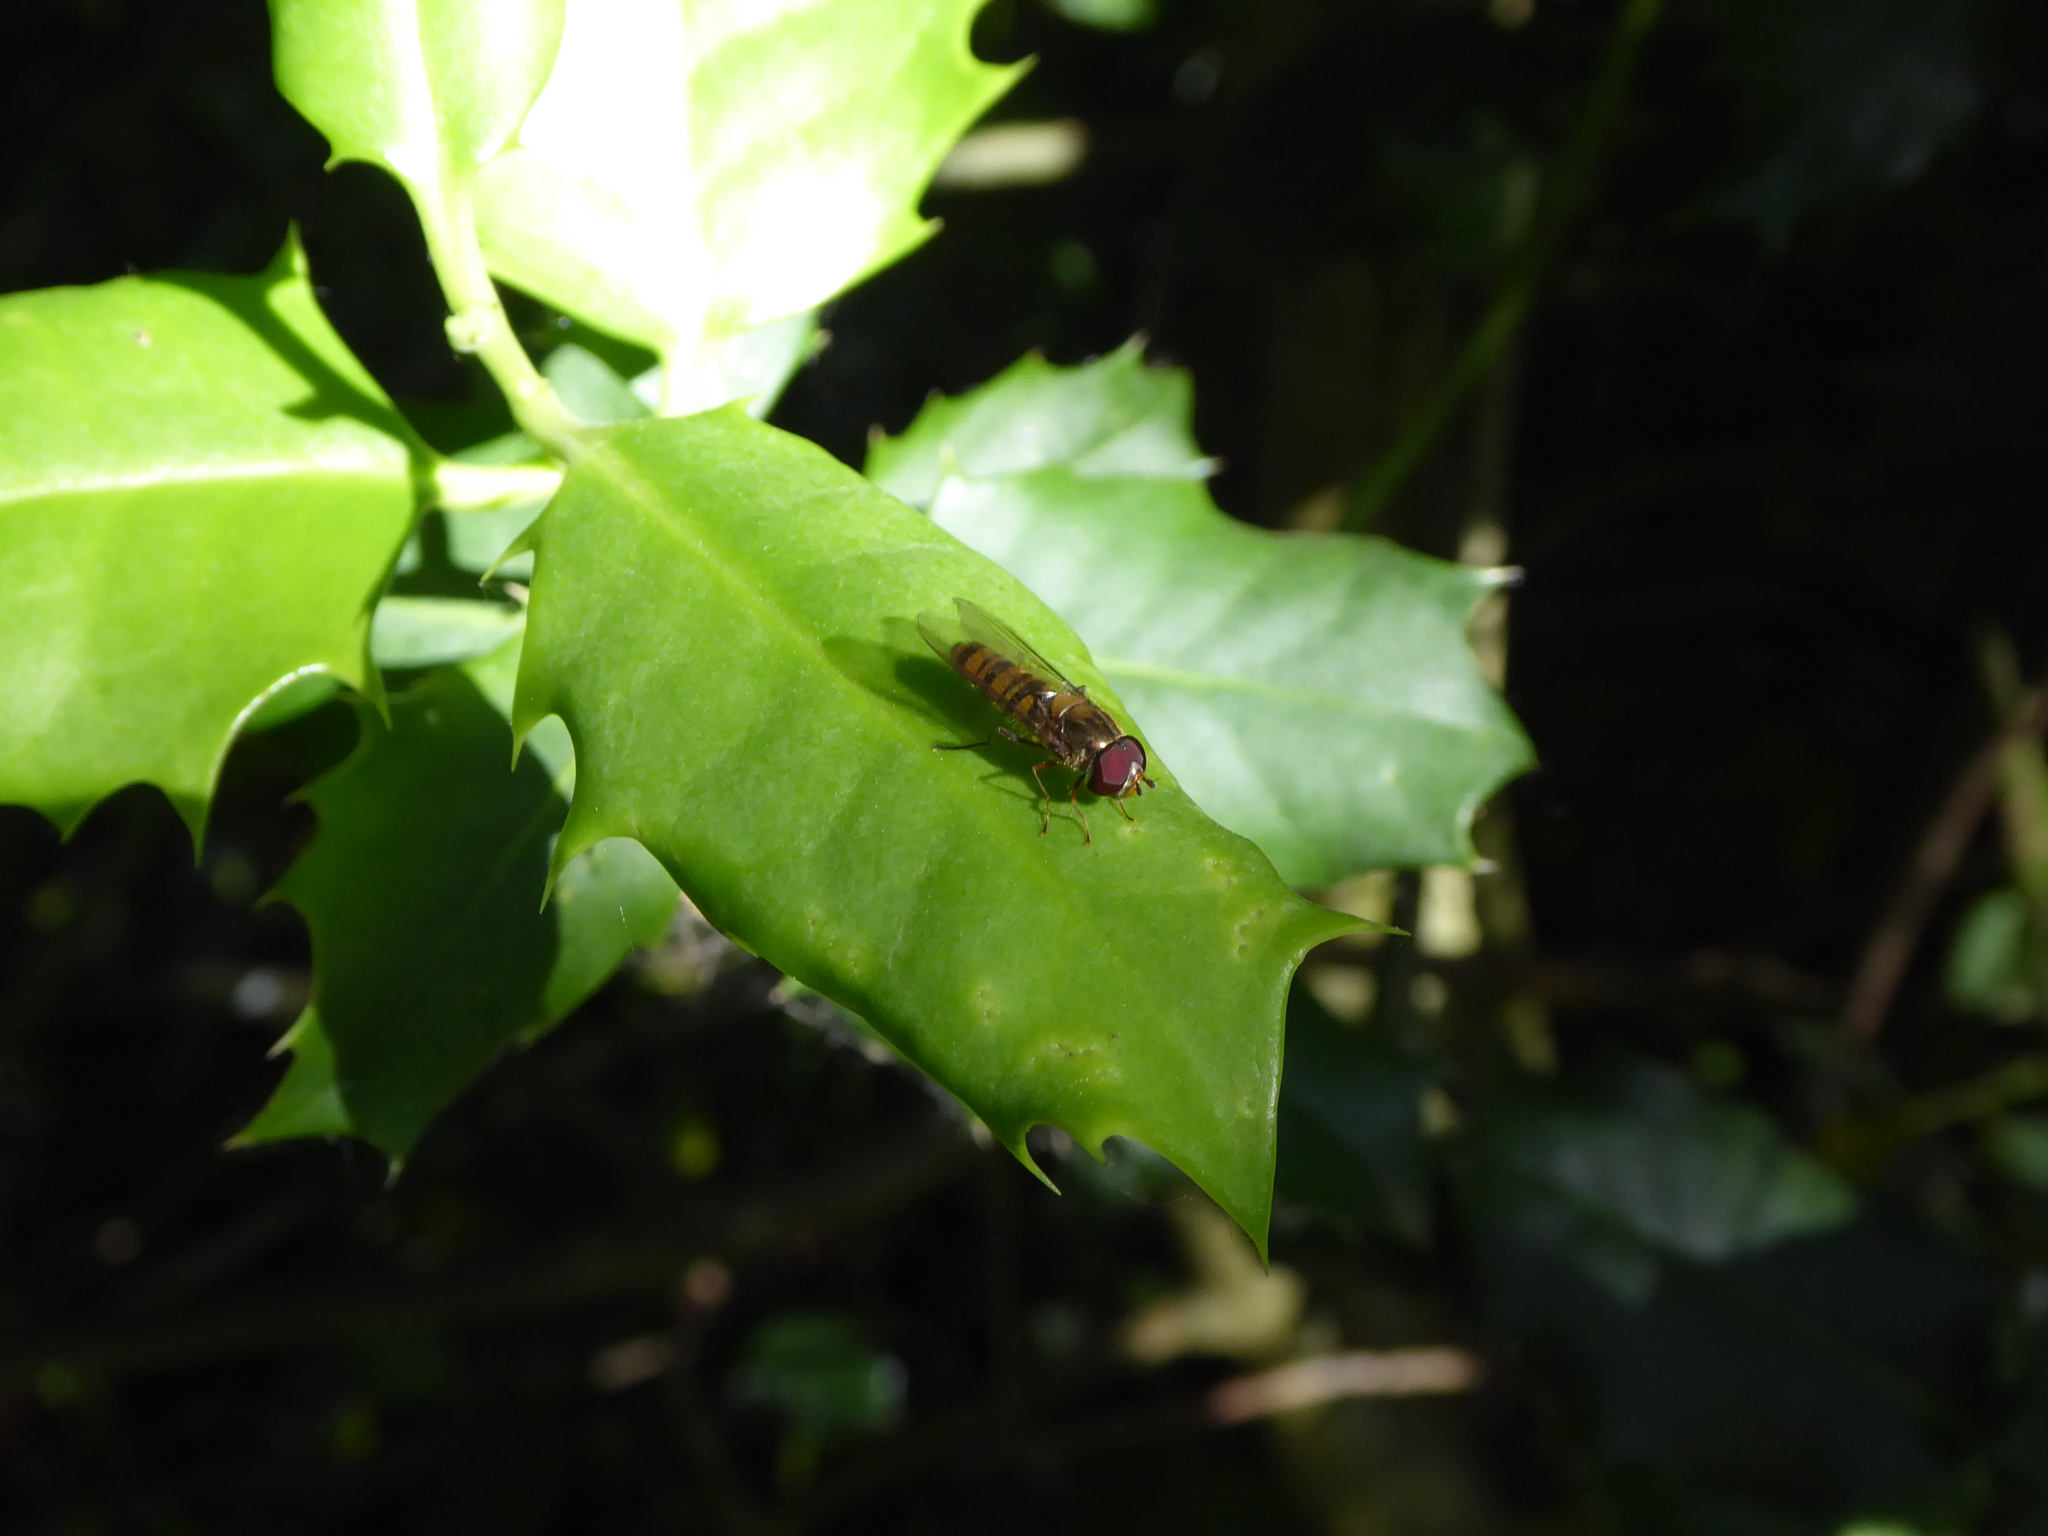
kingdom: Animalia
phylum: Arthropoda
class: Insecta
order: Diptera
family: Syrphidae
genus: Episyrphus
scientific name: Episyrphus balteatus
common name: Marmalade hoverfly
